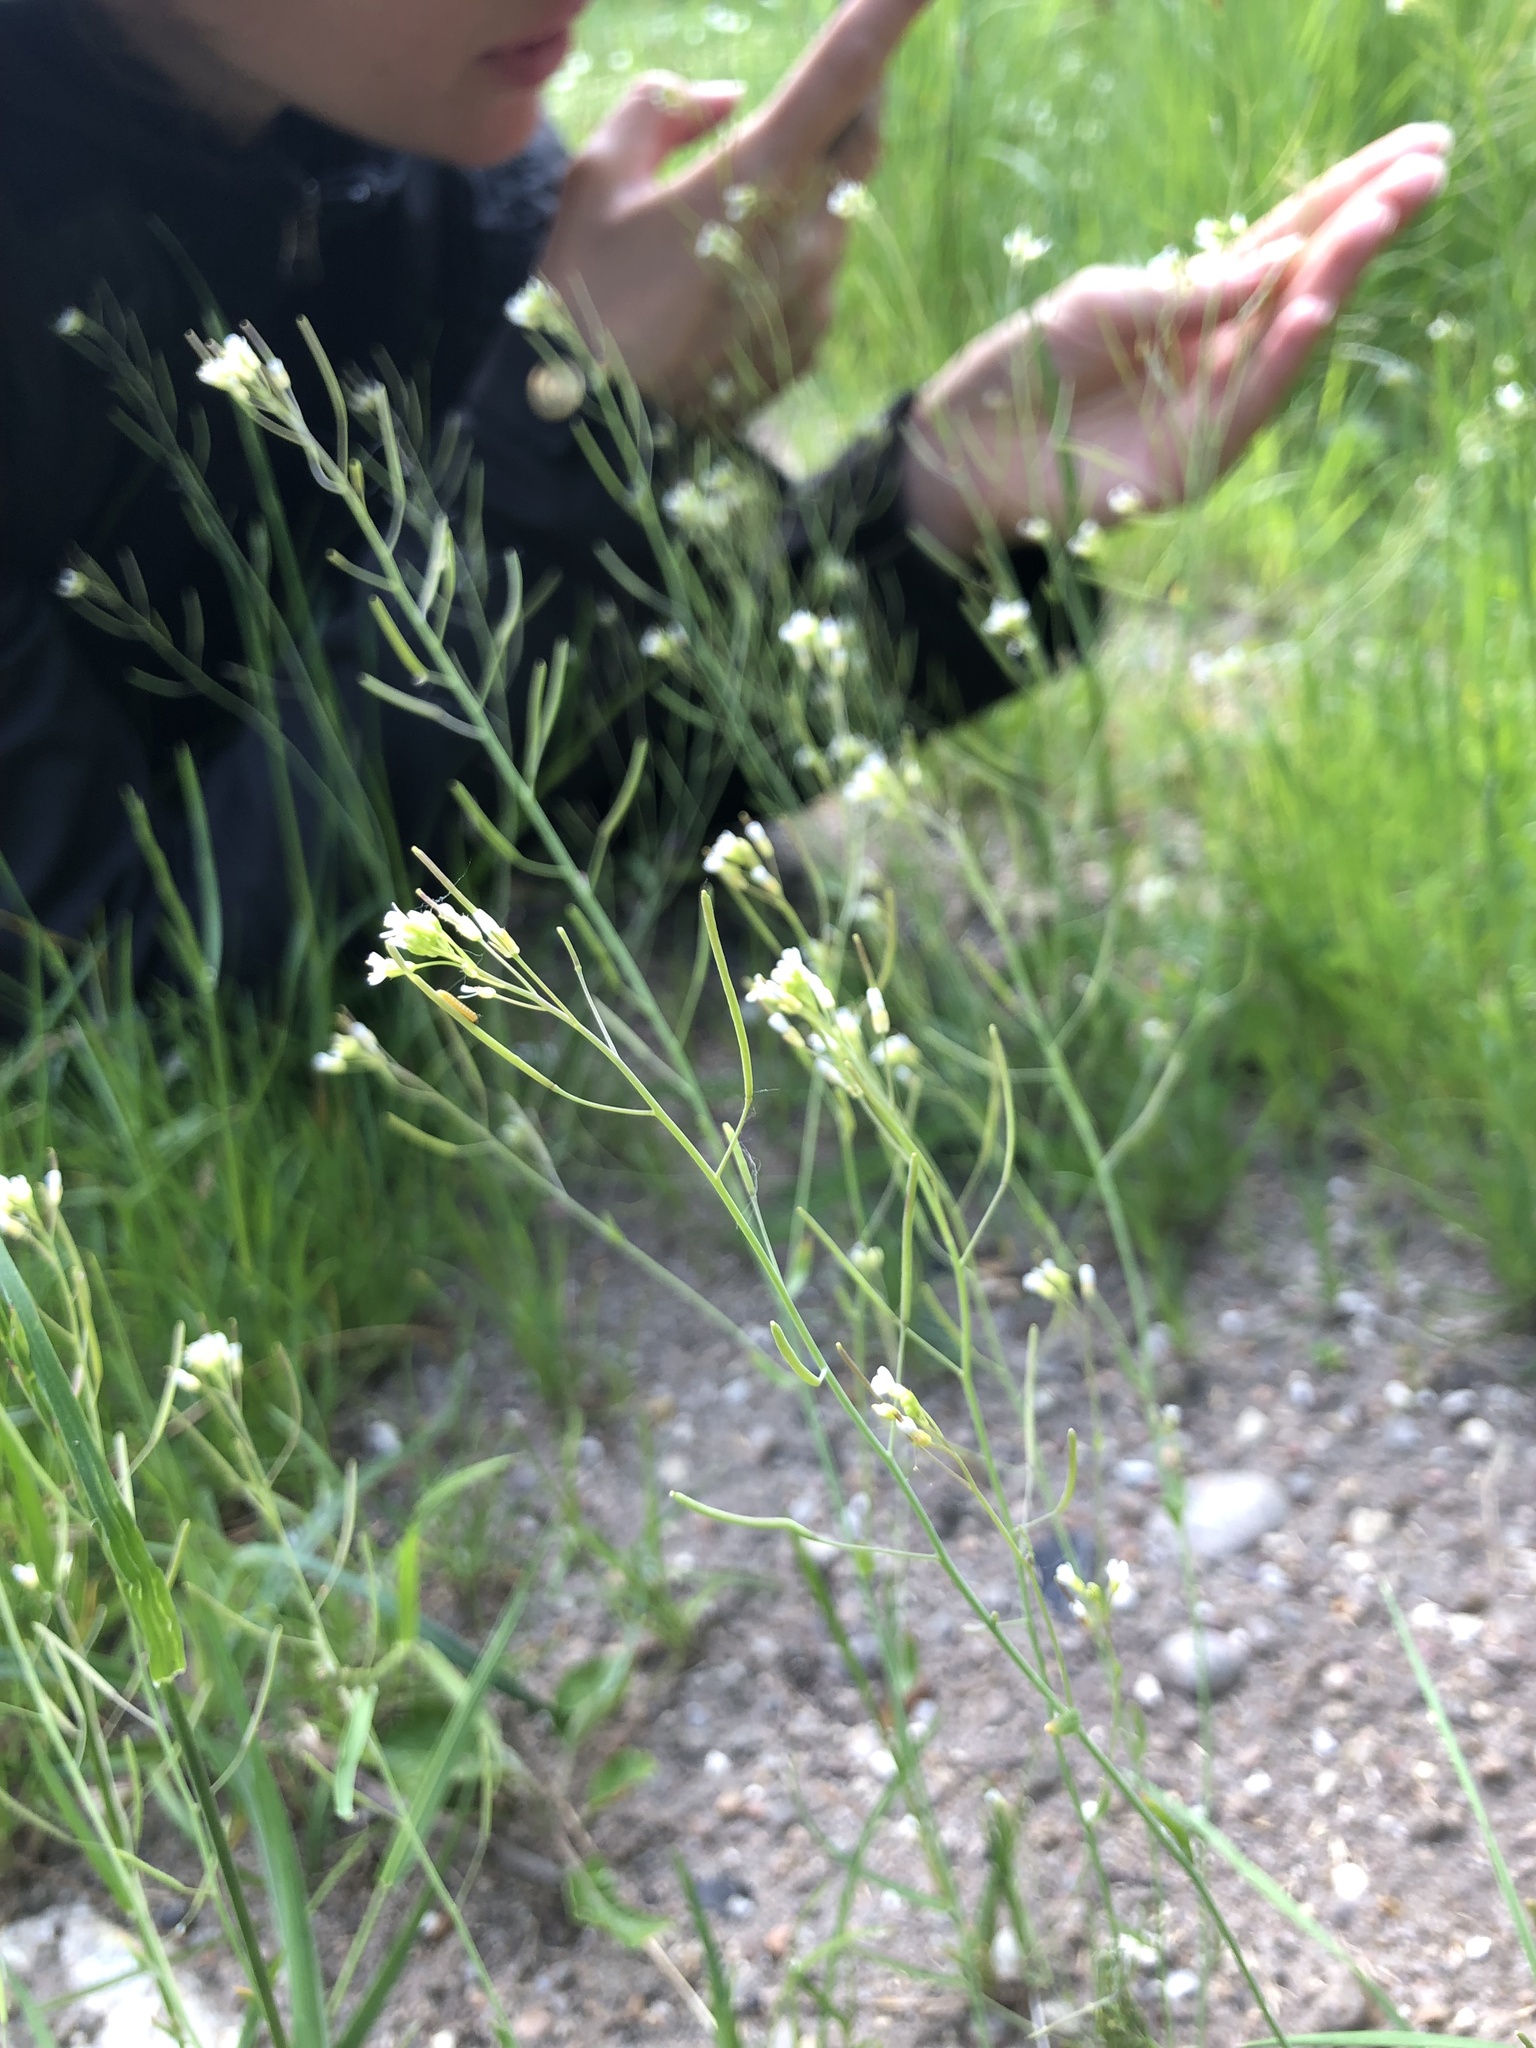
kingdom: Plantae
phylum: Tracheophyta
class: Magnoliopsida
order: Brassicales
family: Brassicaceae
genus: Arabidopsis
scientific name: Arabidopsis thaliana
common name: Thale cress
